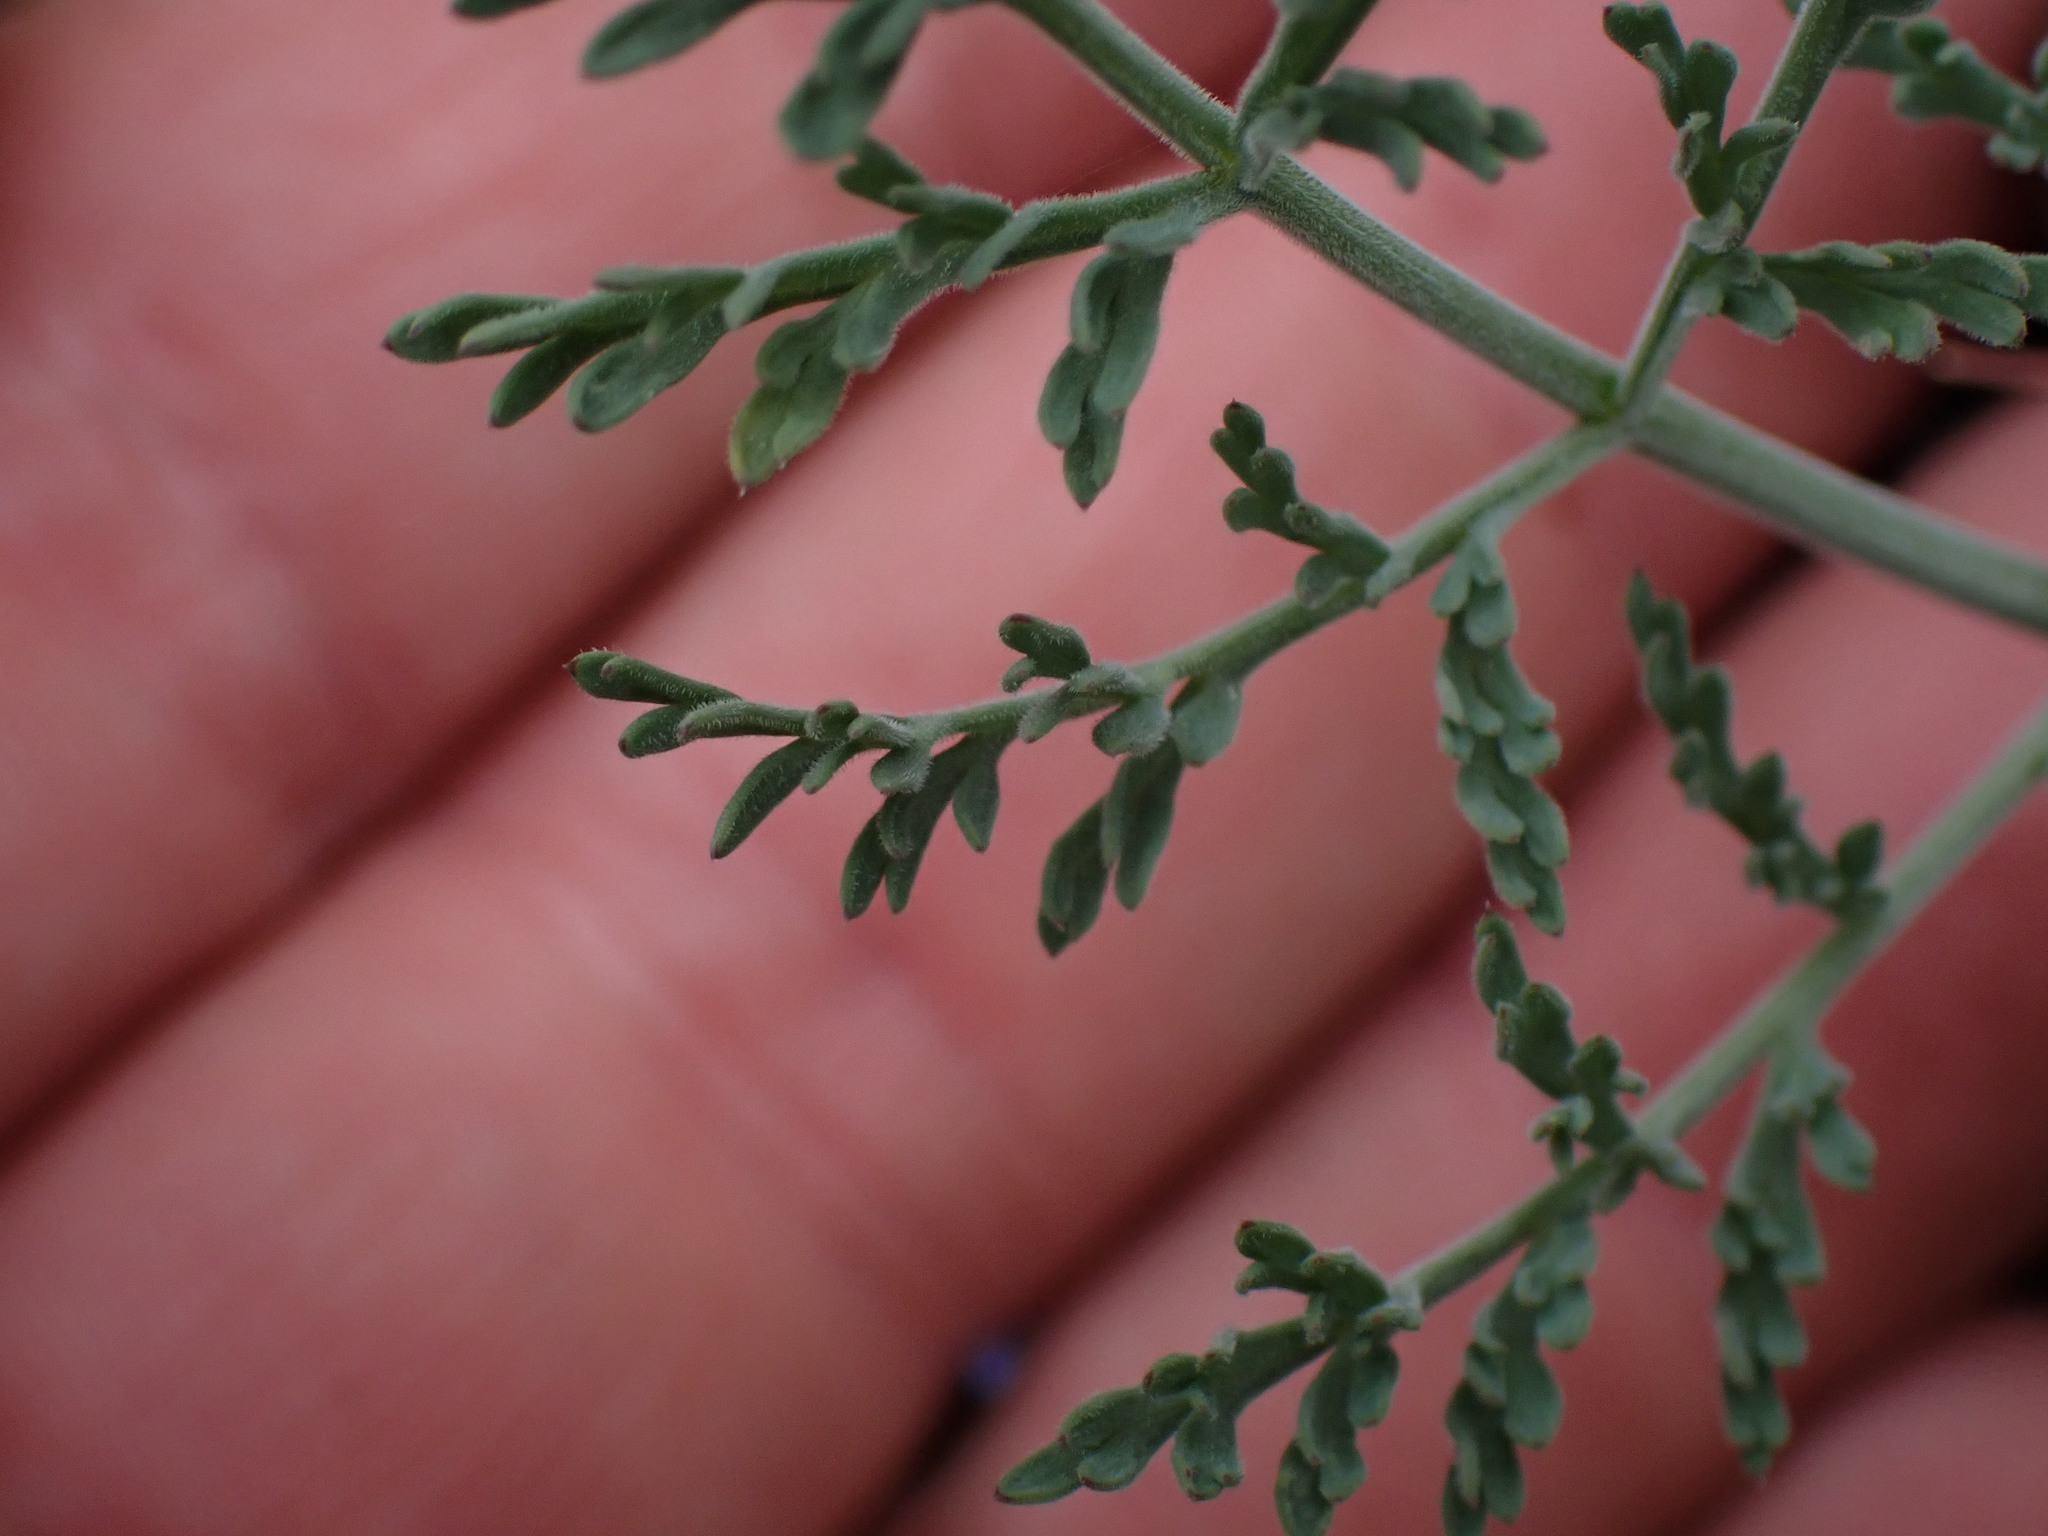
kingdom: Plantae
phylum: Tracheophyta
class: Magnoliopsida
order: Apiales
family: Apiaceae
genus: Lomatium
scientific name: Lomatium macrocarpum
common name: Big-seed biscuitroot
